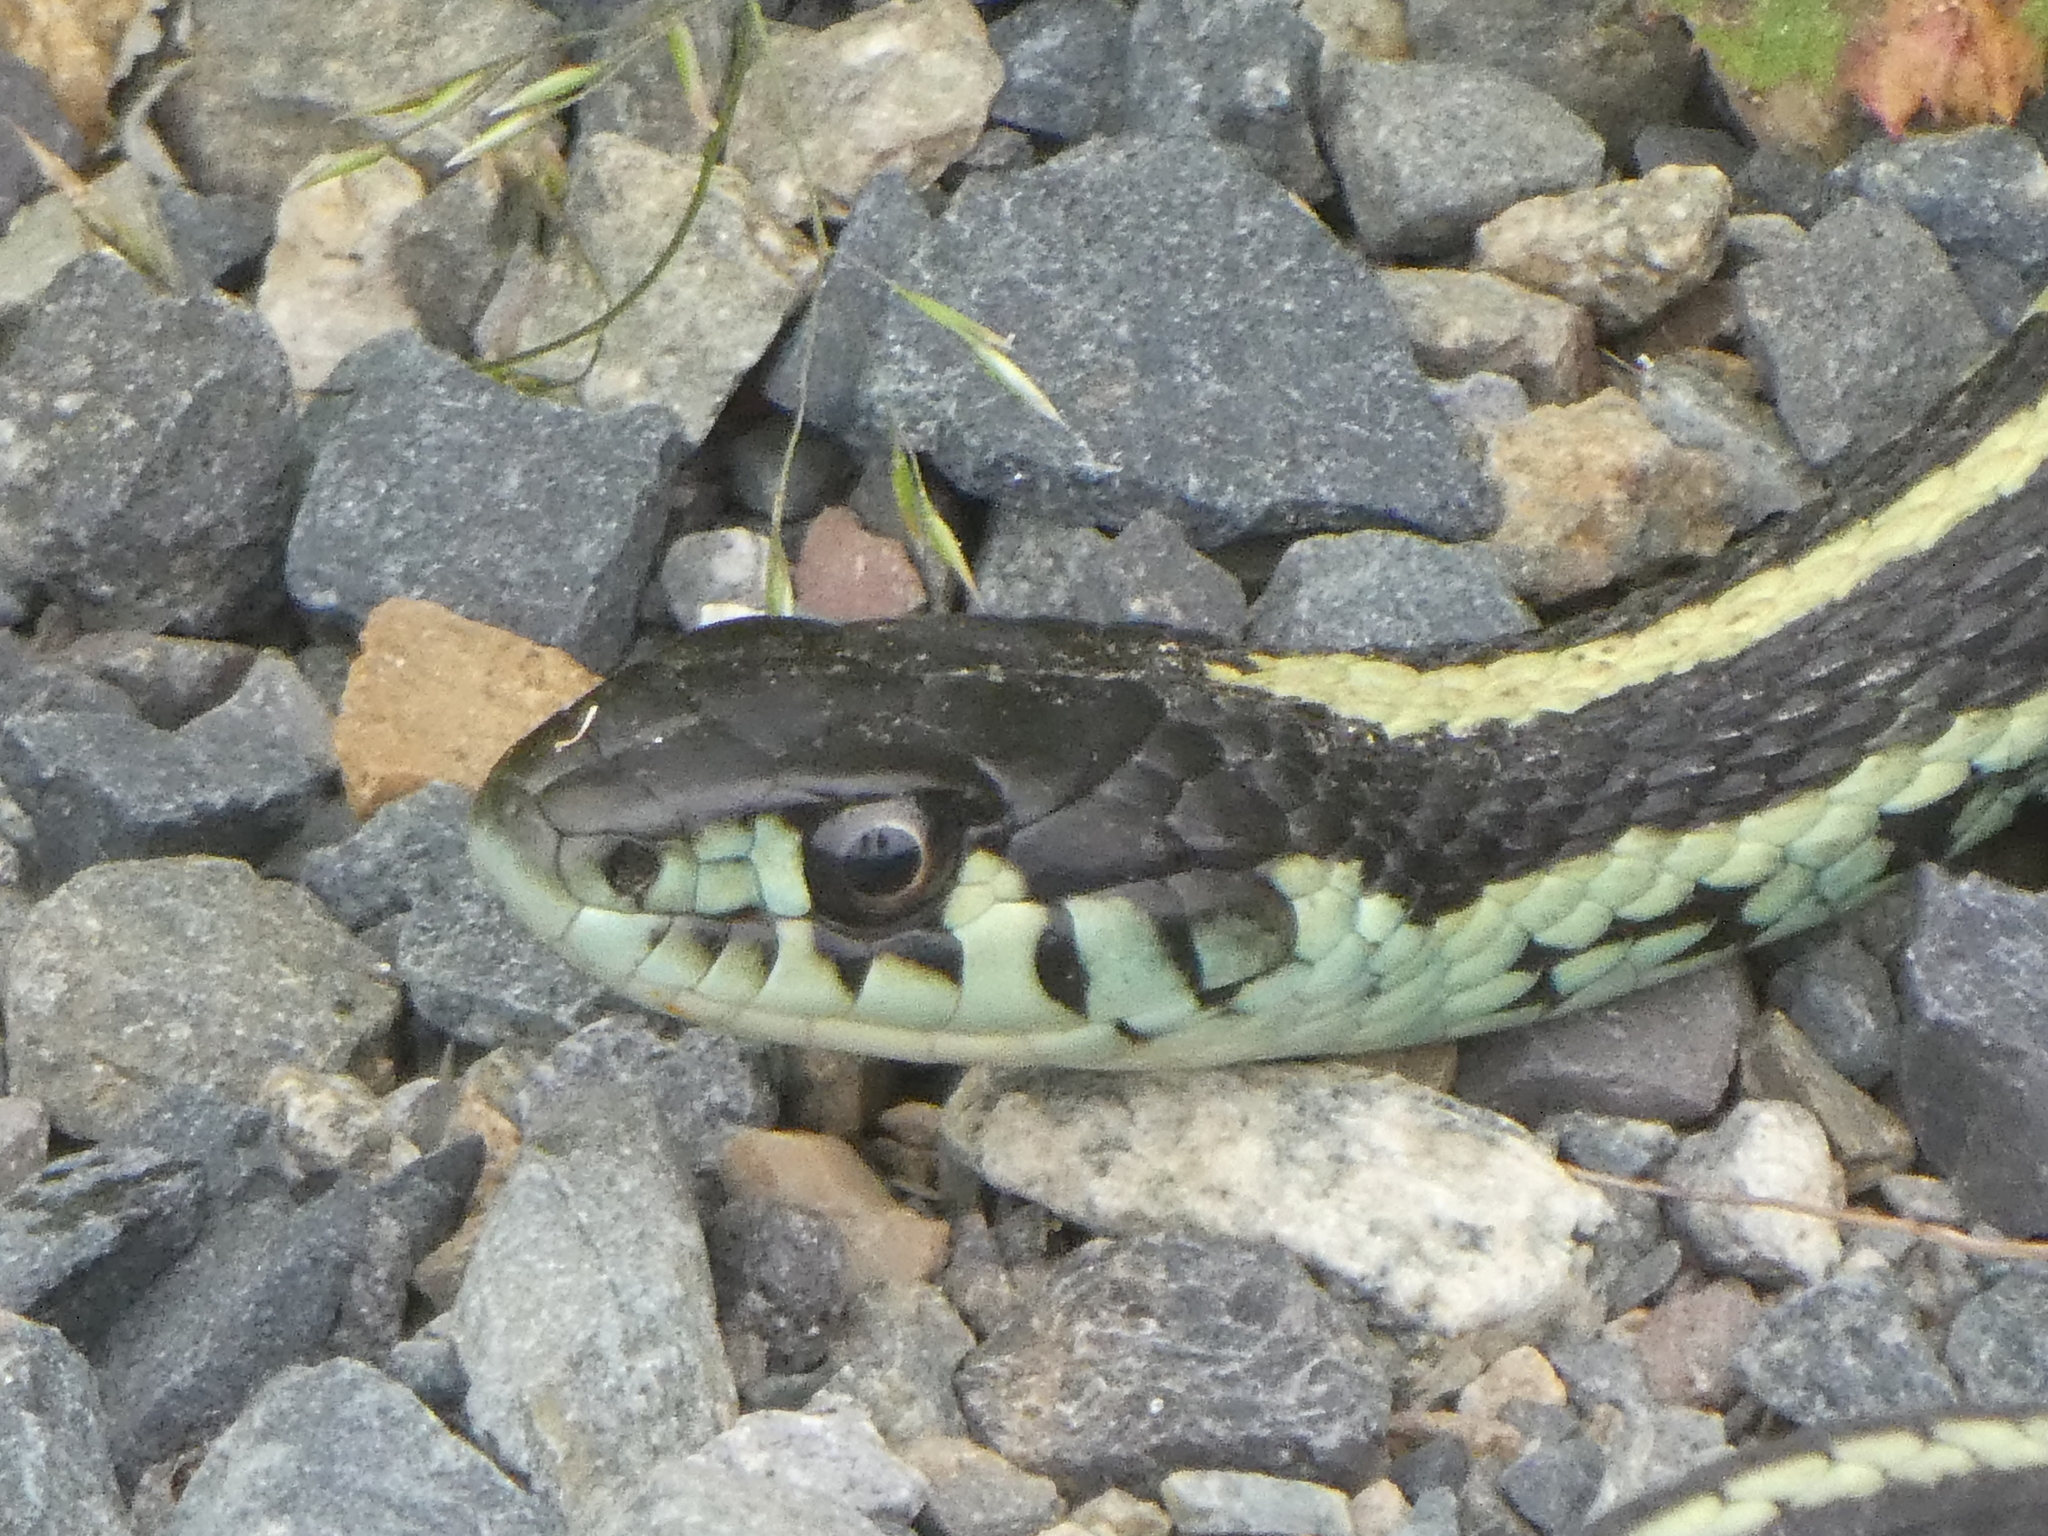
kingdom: Animalia
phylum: Chordata
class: Squamata
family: Colubridae
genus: Thamnophis
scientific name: Thamnophis sirtalis
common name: Common garter snake
